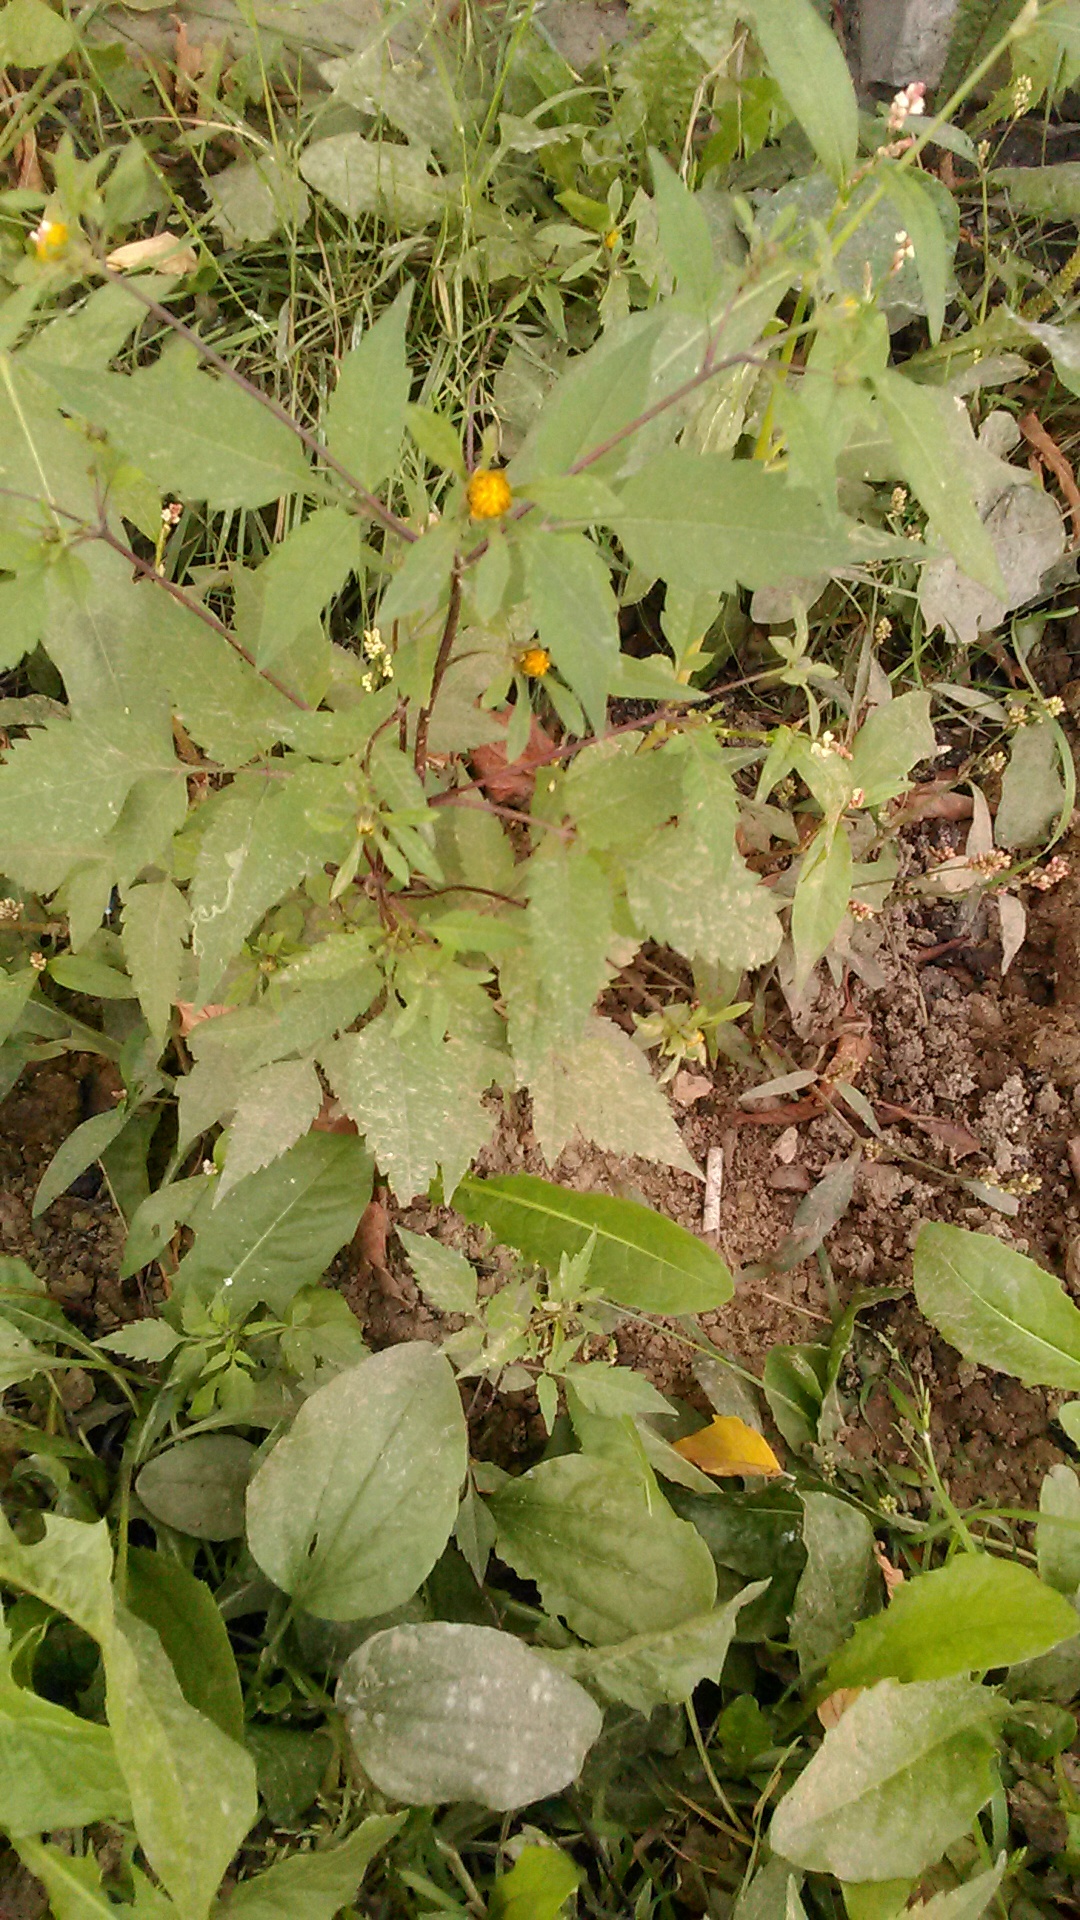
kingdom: Plantae
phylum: Tracheophyta
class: Magnoliopsida
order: Asterales
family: Asteraceae
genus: Bidens
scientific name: Bidens frondosa
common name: Beggarticks
